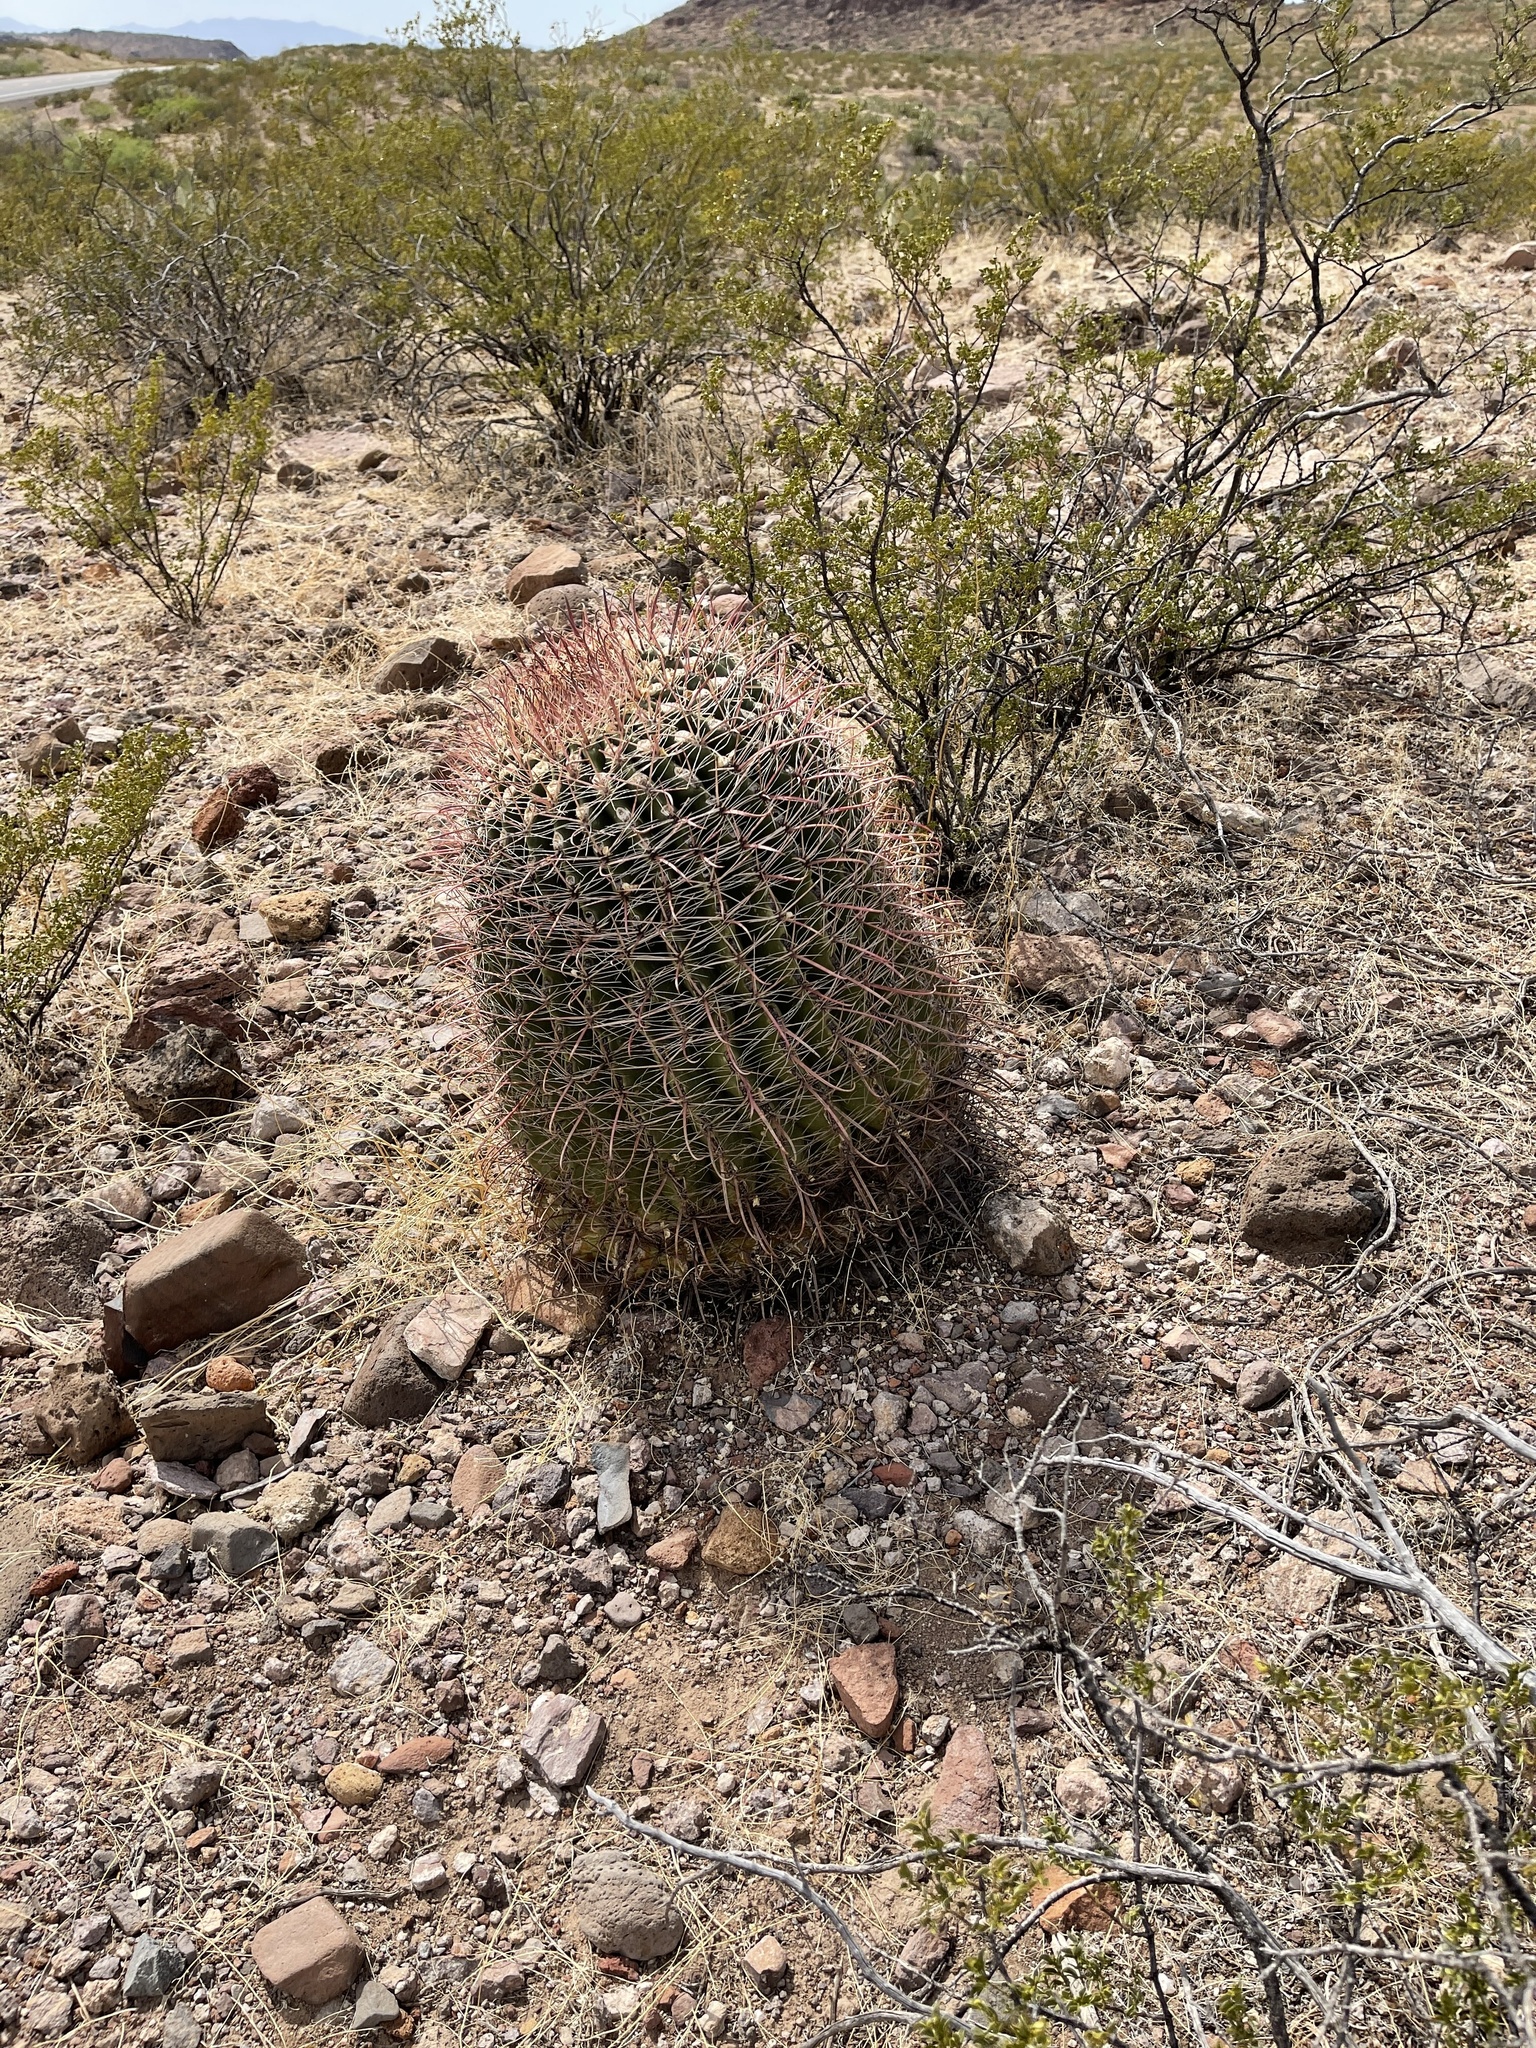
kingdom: Plantae
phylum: Tracheophyta
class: Magnoliopsida
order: Caryophyllales
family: Cactaceae
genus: Ferocactus
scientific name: Ferocactus wislizeni
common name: Candy barrel cactus
